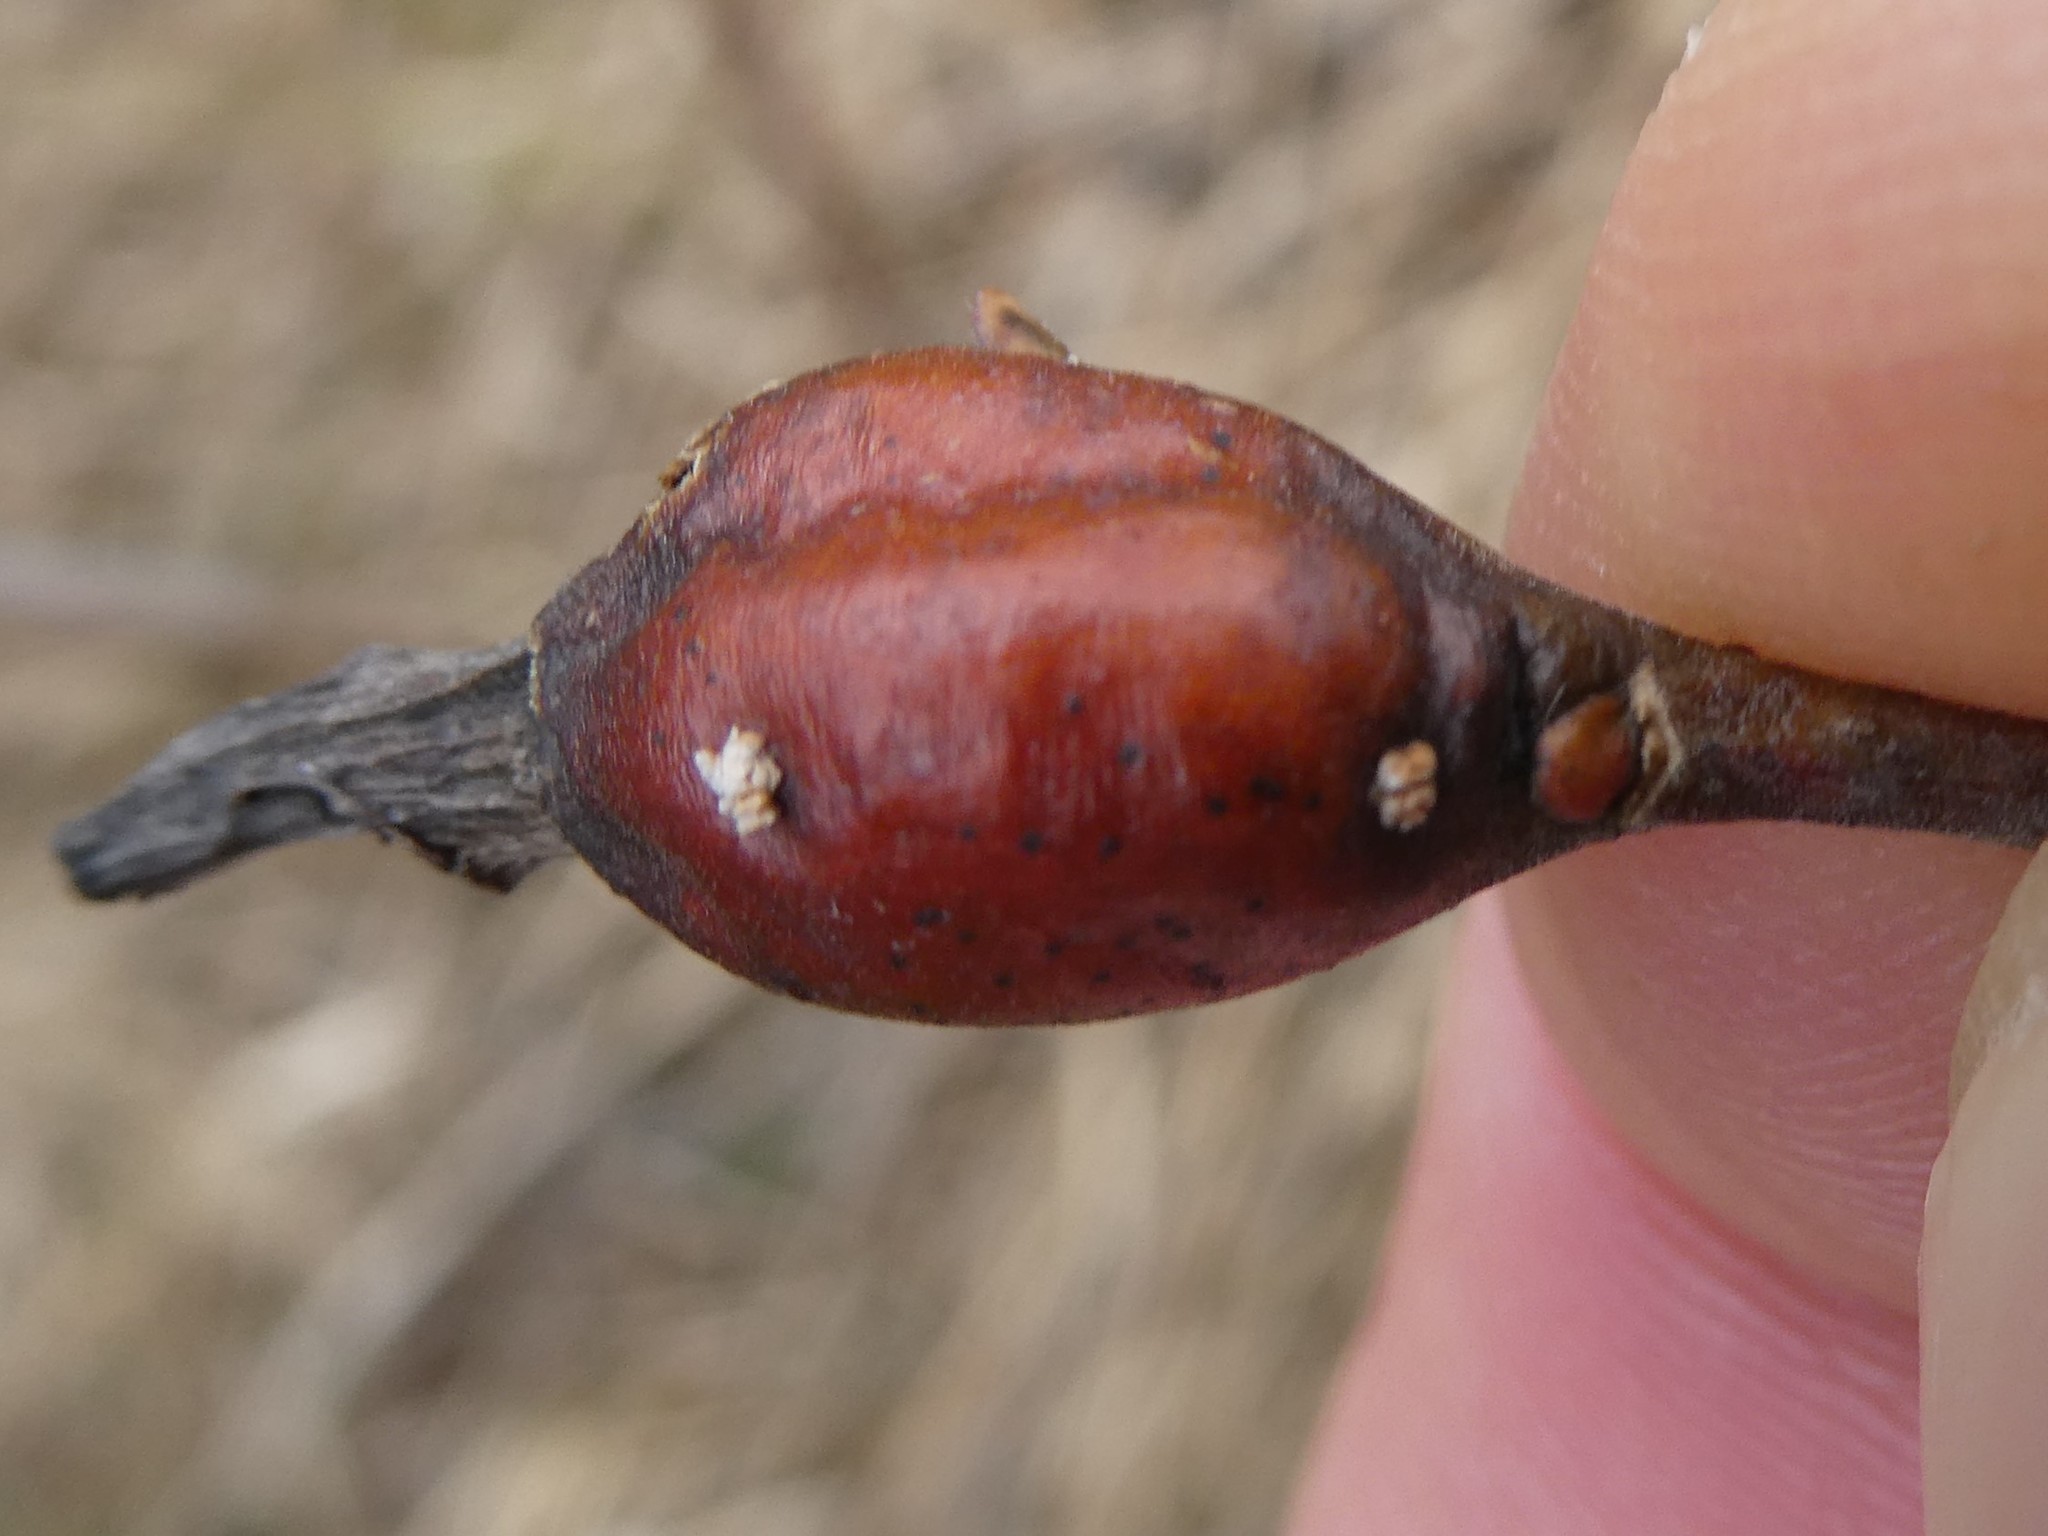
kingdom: Animalia
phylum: Arthropoda
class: Insecta
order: Diptera
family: Cecidomyiidae
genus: Thecodiplosis
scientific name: Thecodiplosis pinirigidae
